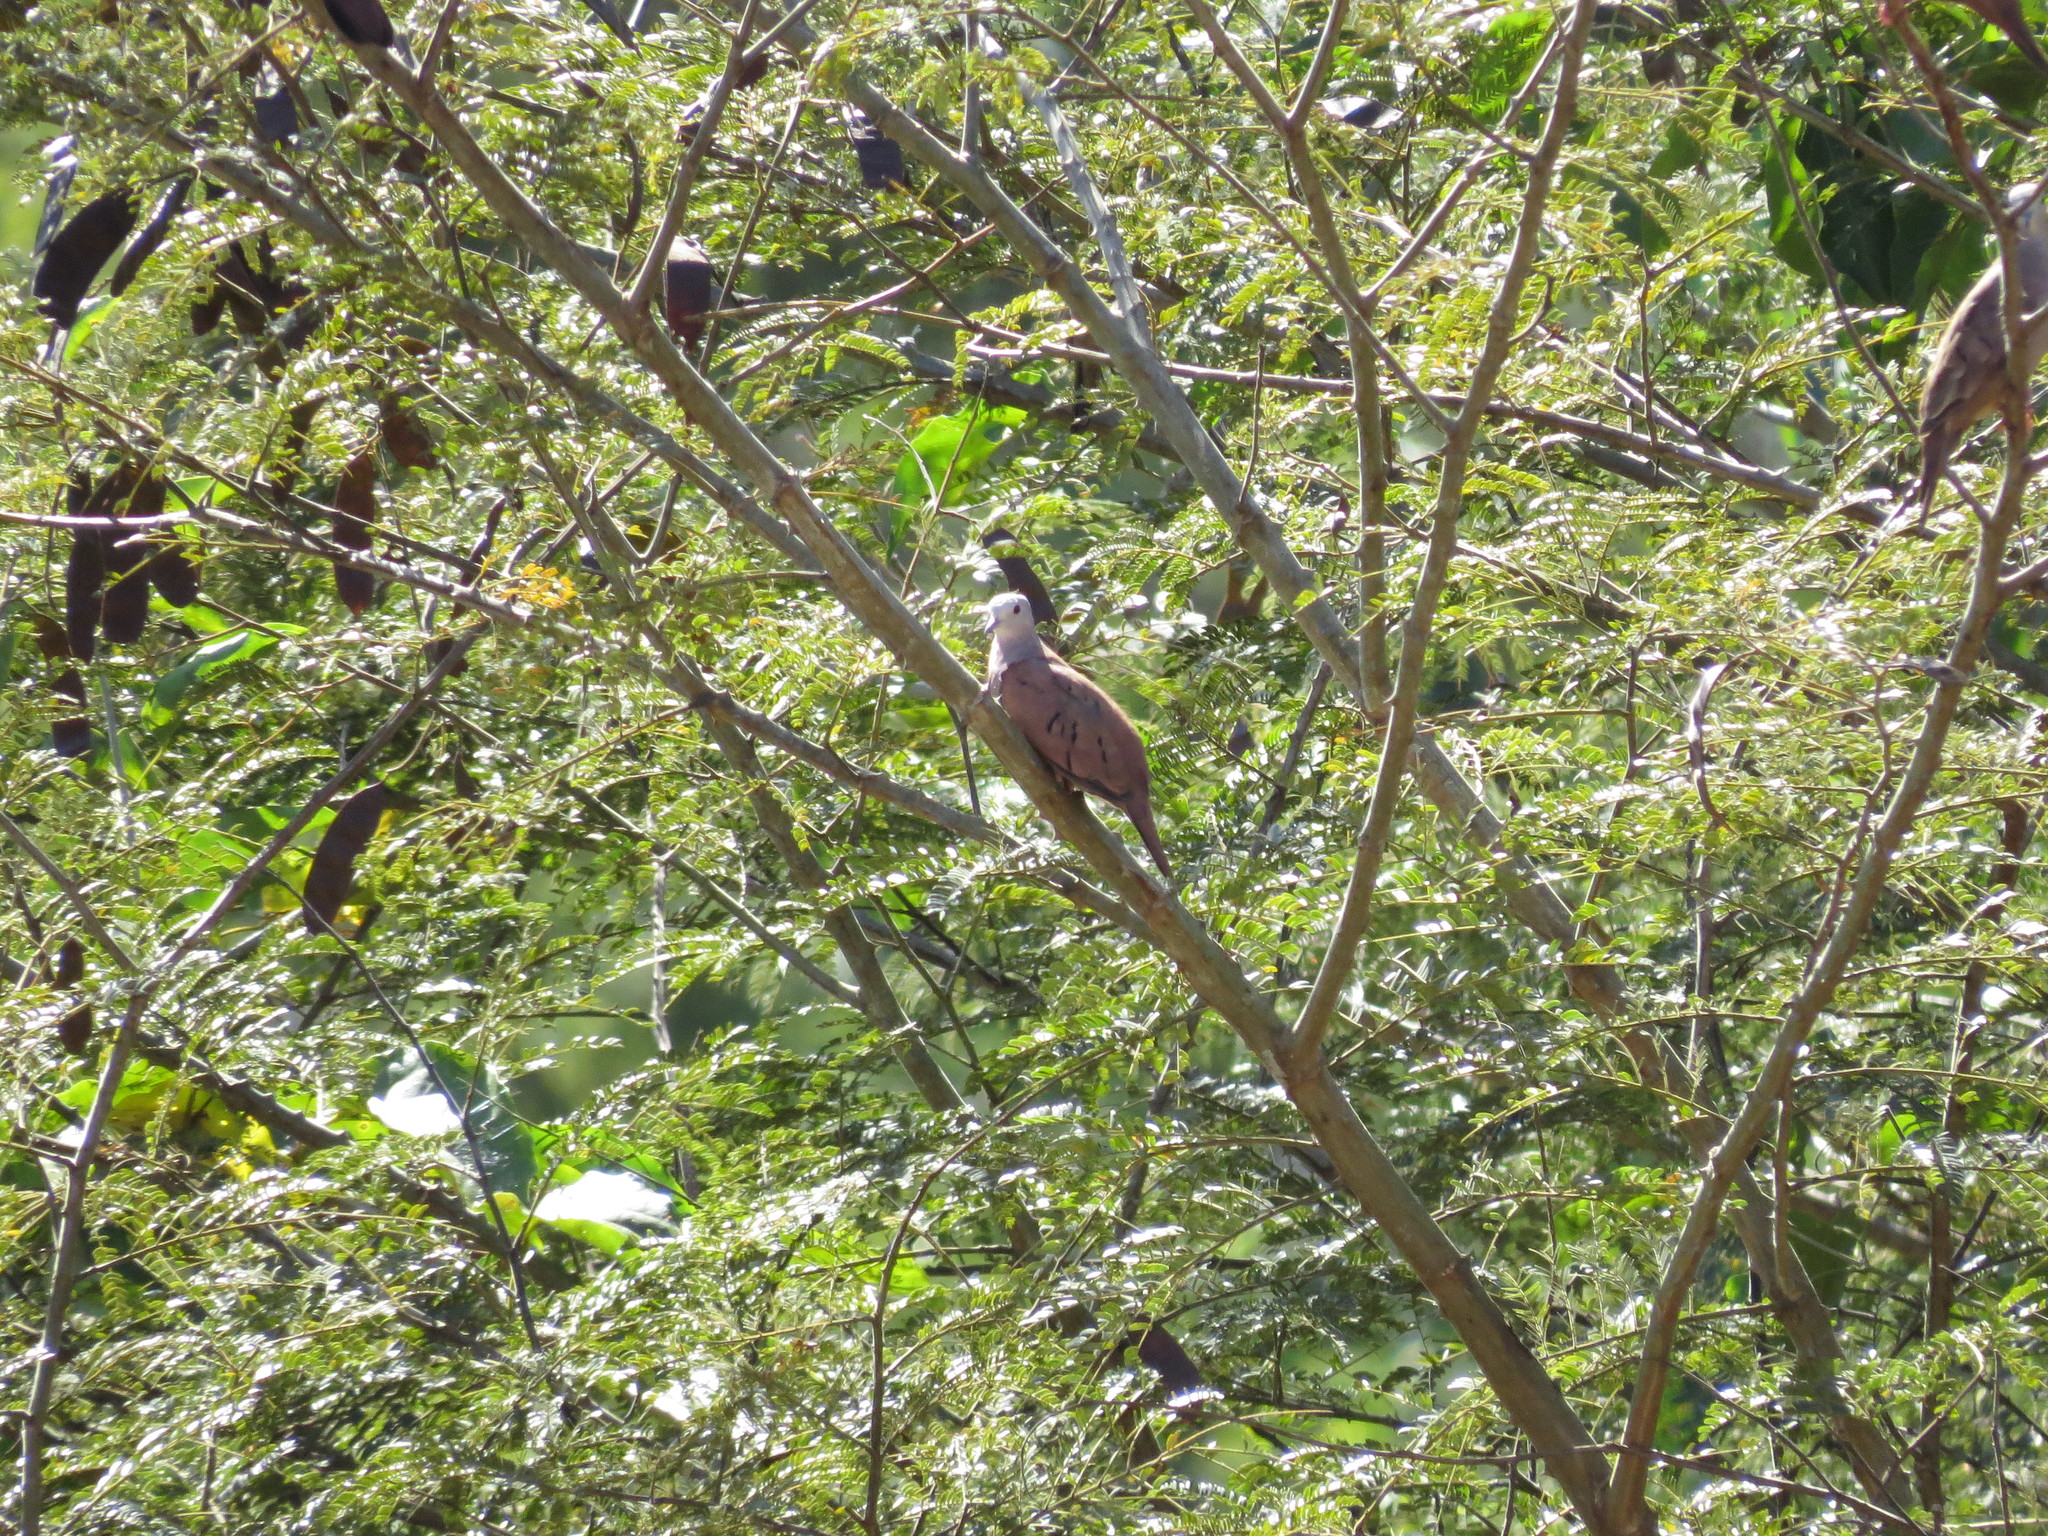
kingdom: Animalia
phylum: Chordata
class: Aves
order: Columbiformes
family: Columbidae
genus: Columbina
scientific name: Columbina talpacoti
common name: Ruddy ground dove
